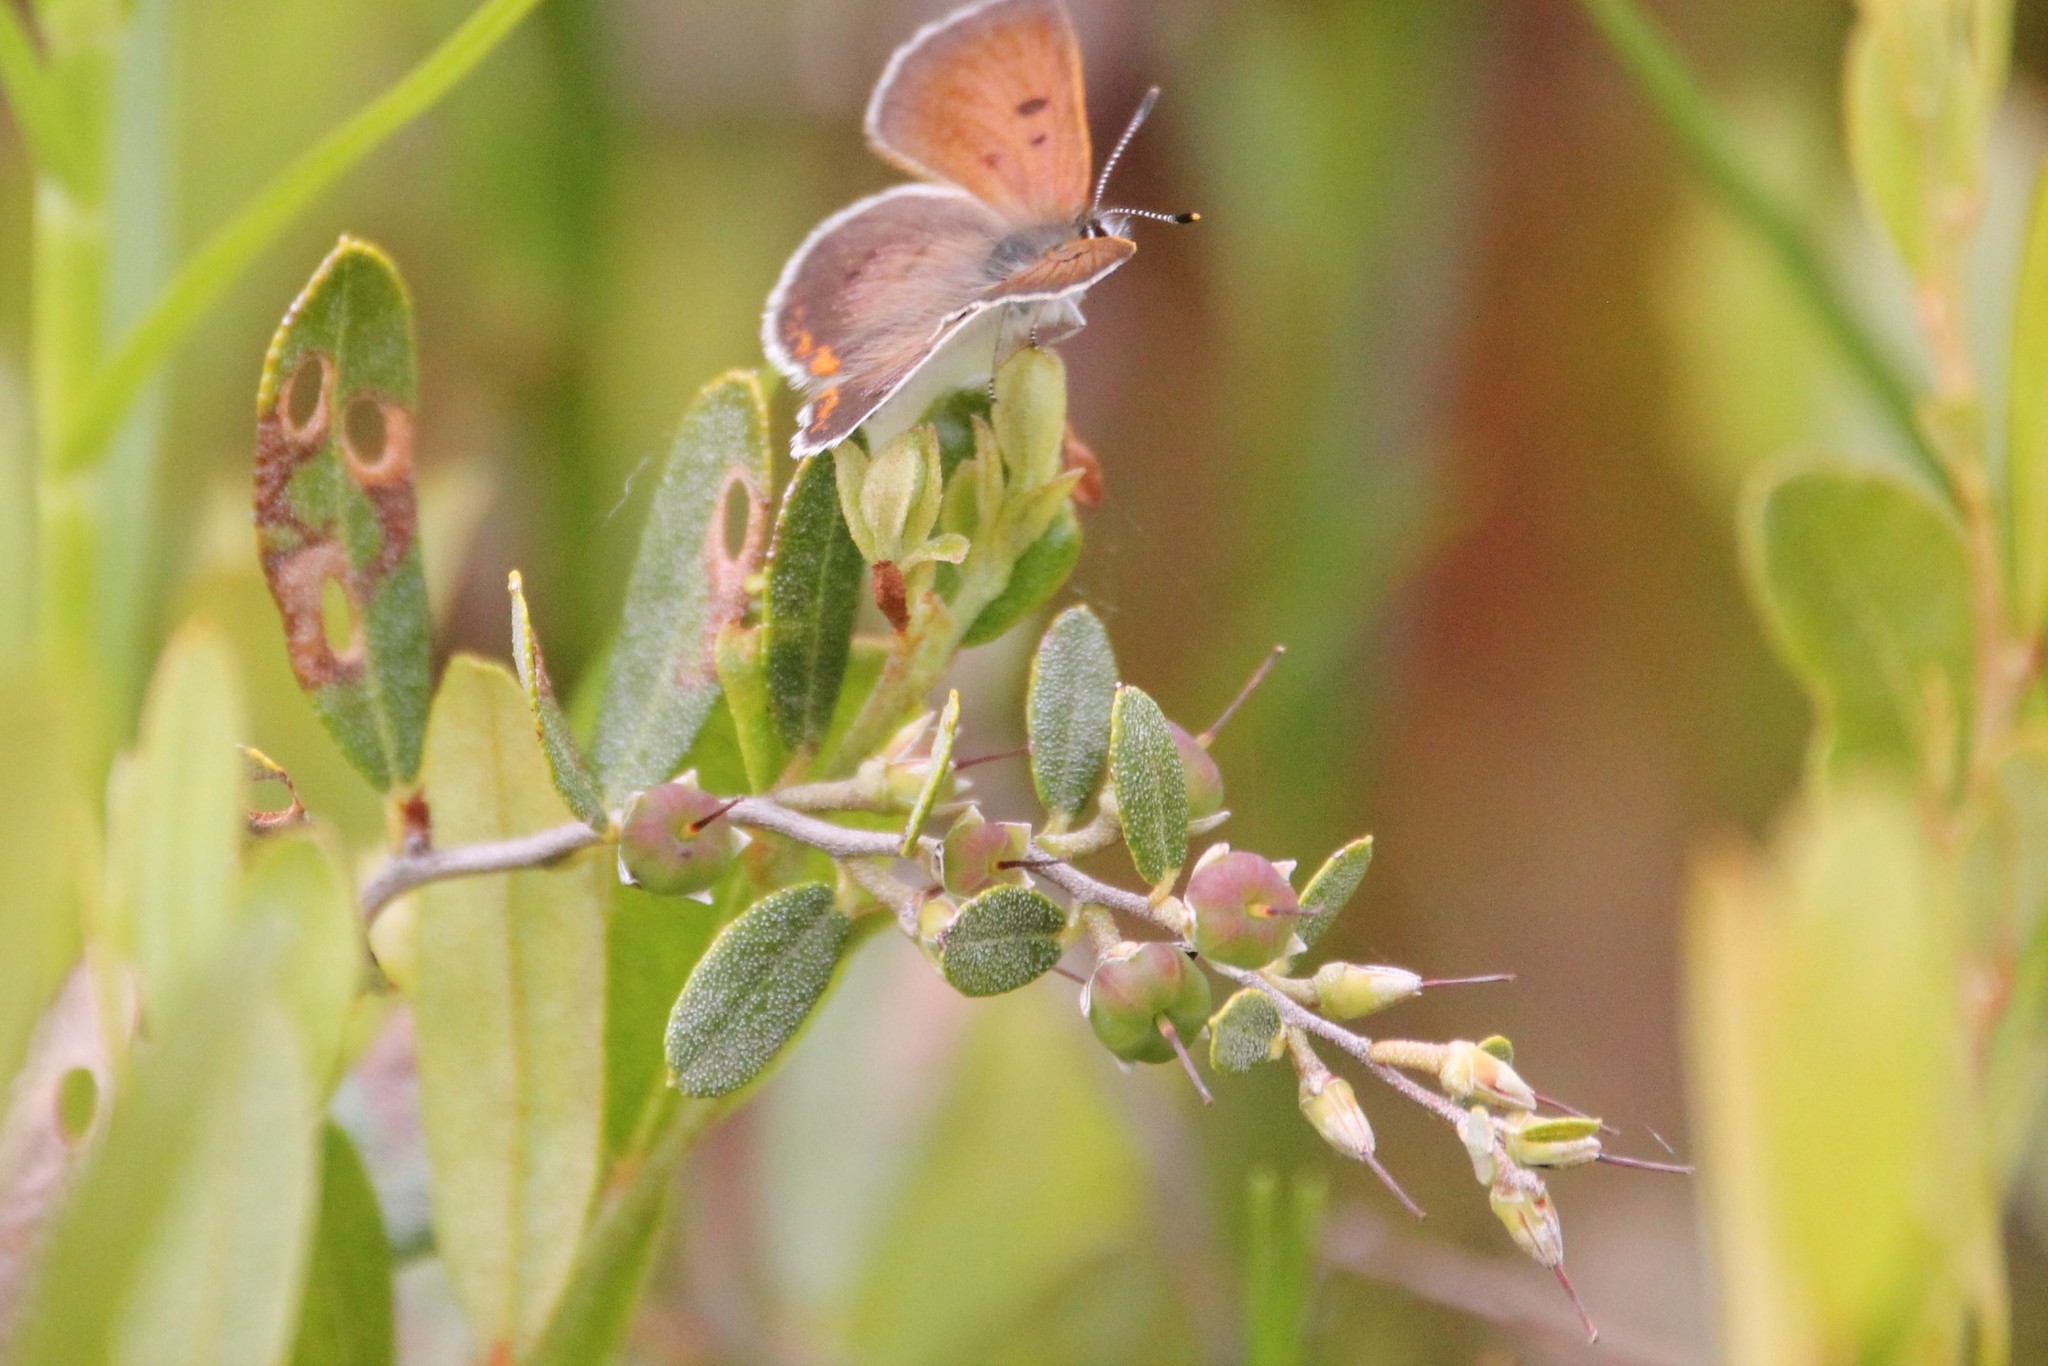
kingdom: Plantae
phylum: Tracheophyta
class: Magnoliopsida
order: Ericales
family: Ericaceae
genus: Chamaedaphne
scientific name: Chamaedaphne calyculata
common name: Leatherleaf
